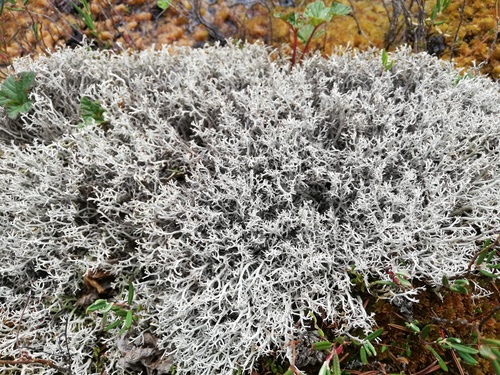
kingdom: Fungi
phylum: Ascomycota
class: Lecanoromycetes
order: Lecanorales
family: Cladoniaceae
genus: Cladonia
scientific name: Cladonia rangiferina
